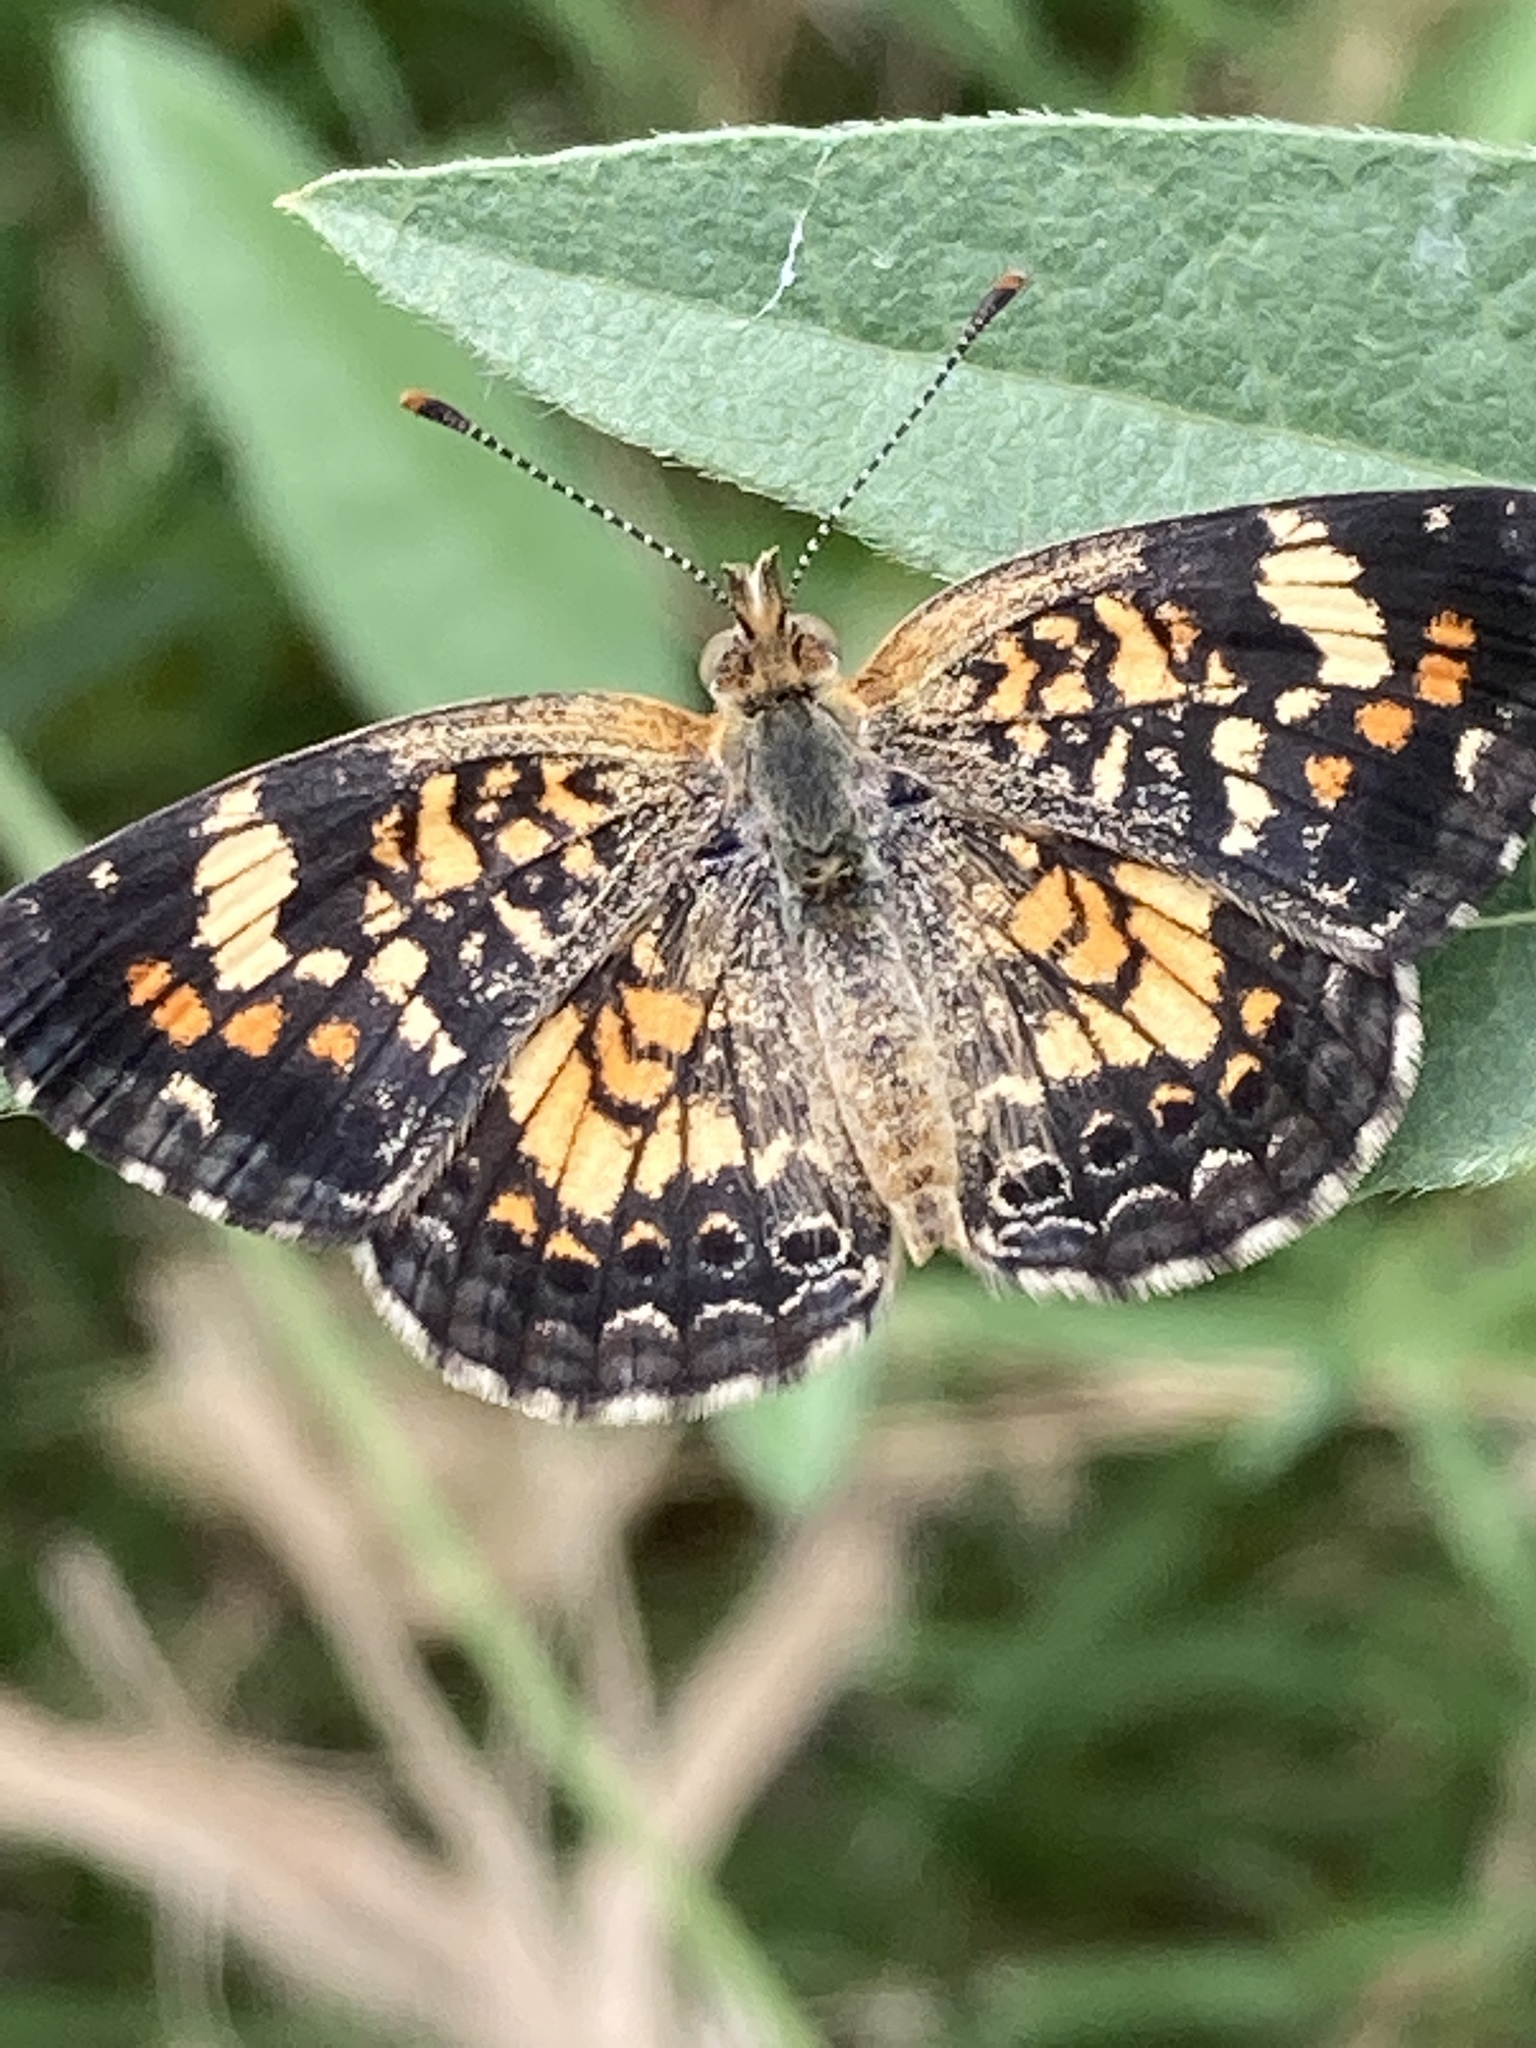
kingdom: Animalia
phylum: Arthropoda
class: Insecta
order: Lepidoptera
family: Nymphalidae
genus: Phyciodes
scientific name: Phyciodes phaon
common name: Phaon crescent
